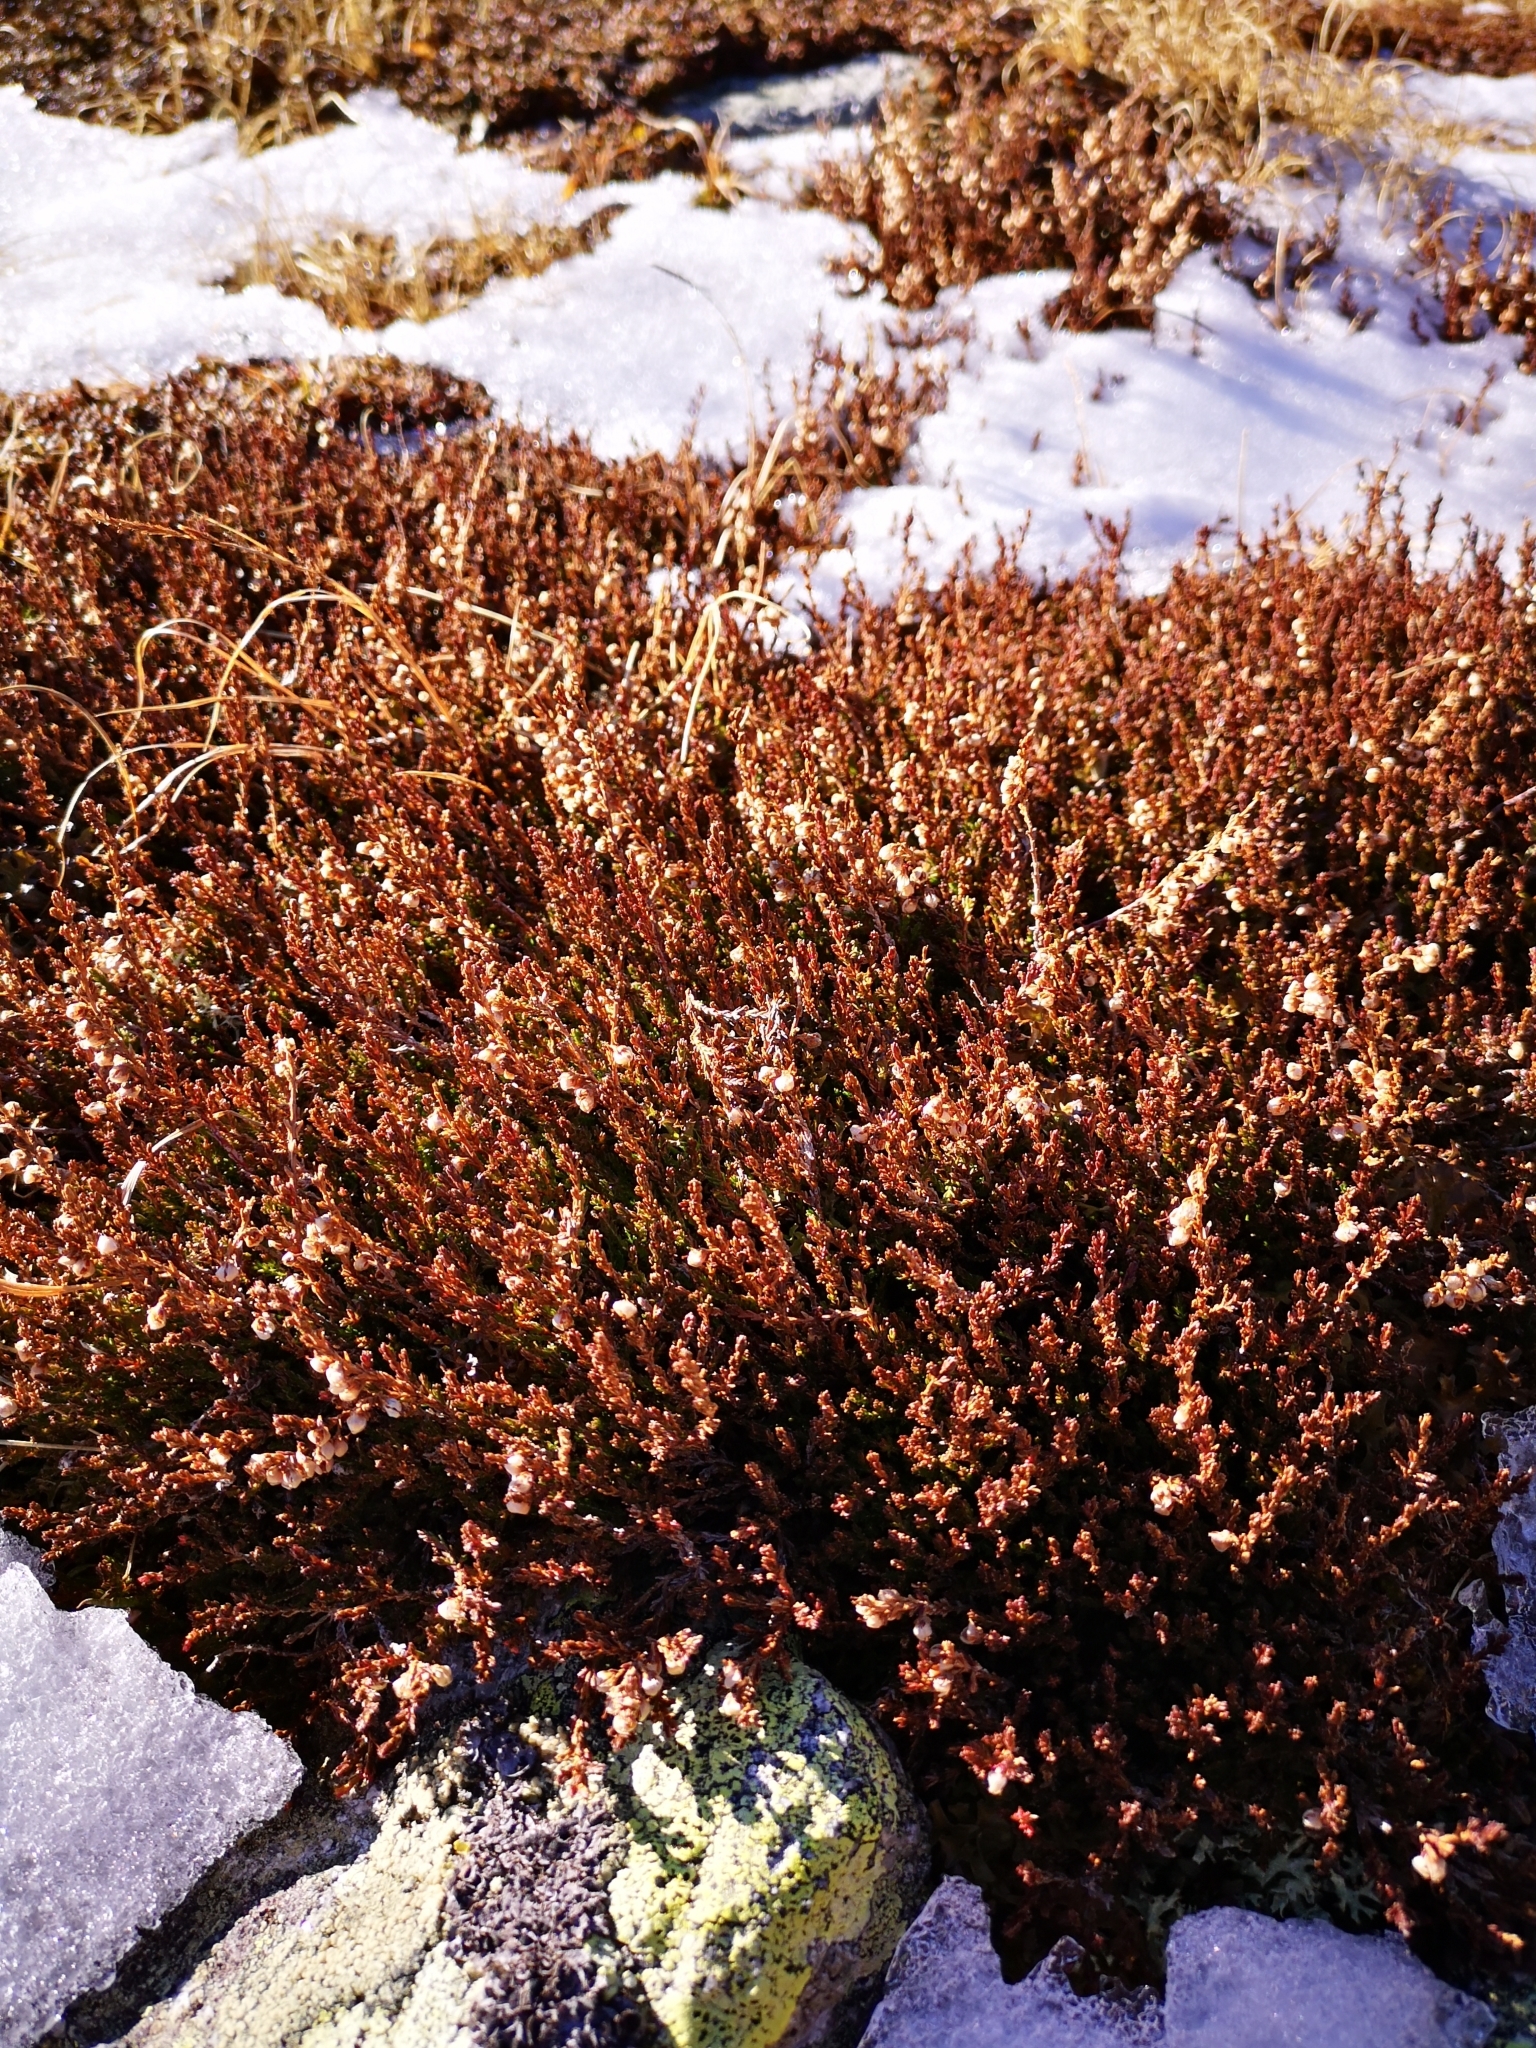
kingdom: Plantae
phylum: Tracheophyta
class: Magnoliopsida
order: Ericales
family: Ericaceae
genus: Calluna
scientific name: Calluna vulgaris
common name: Heather
